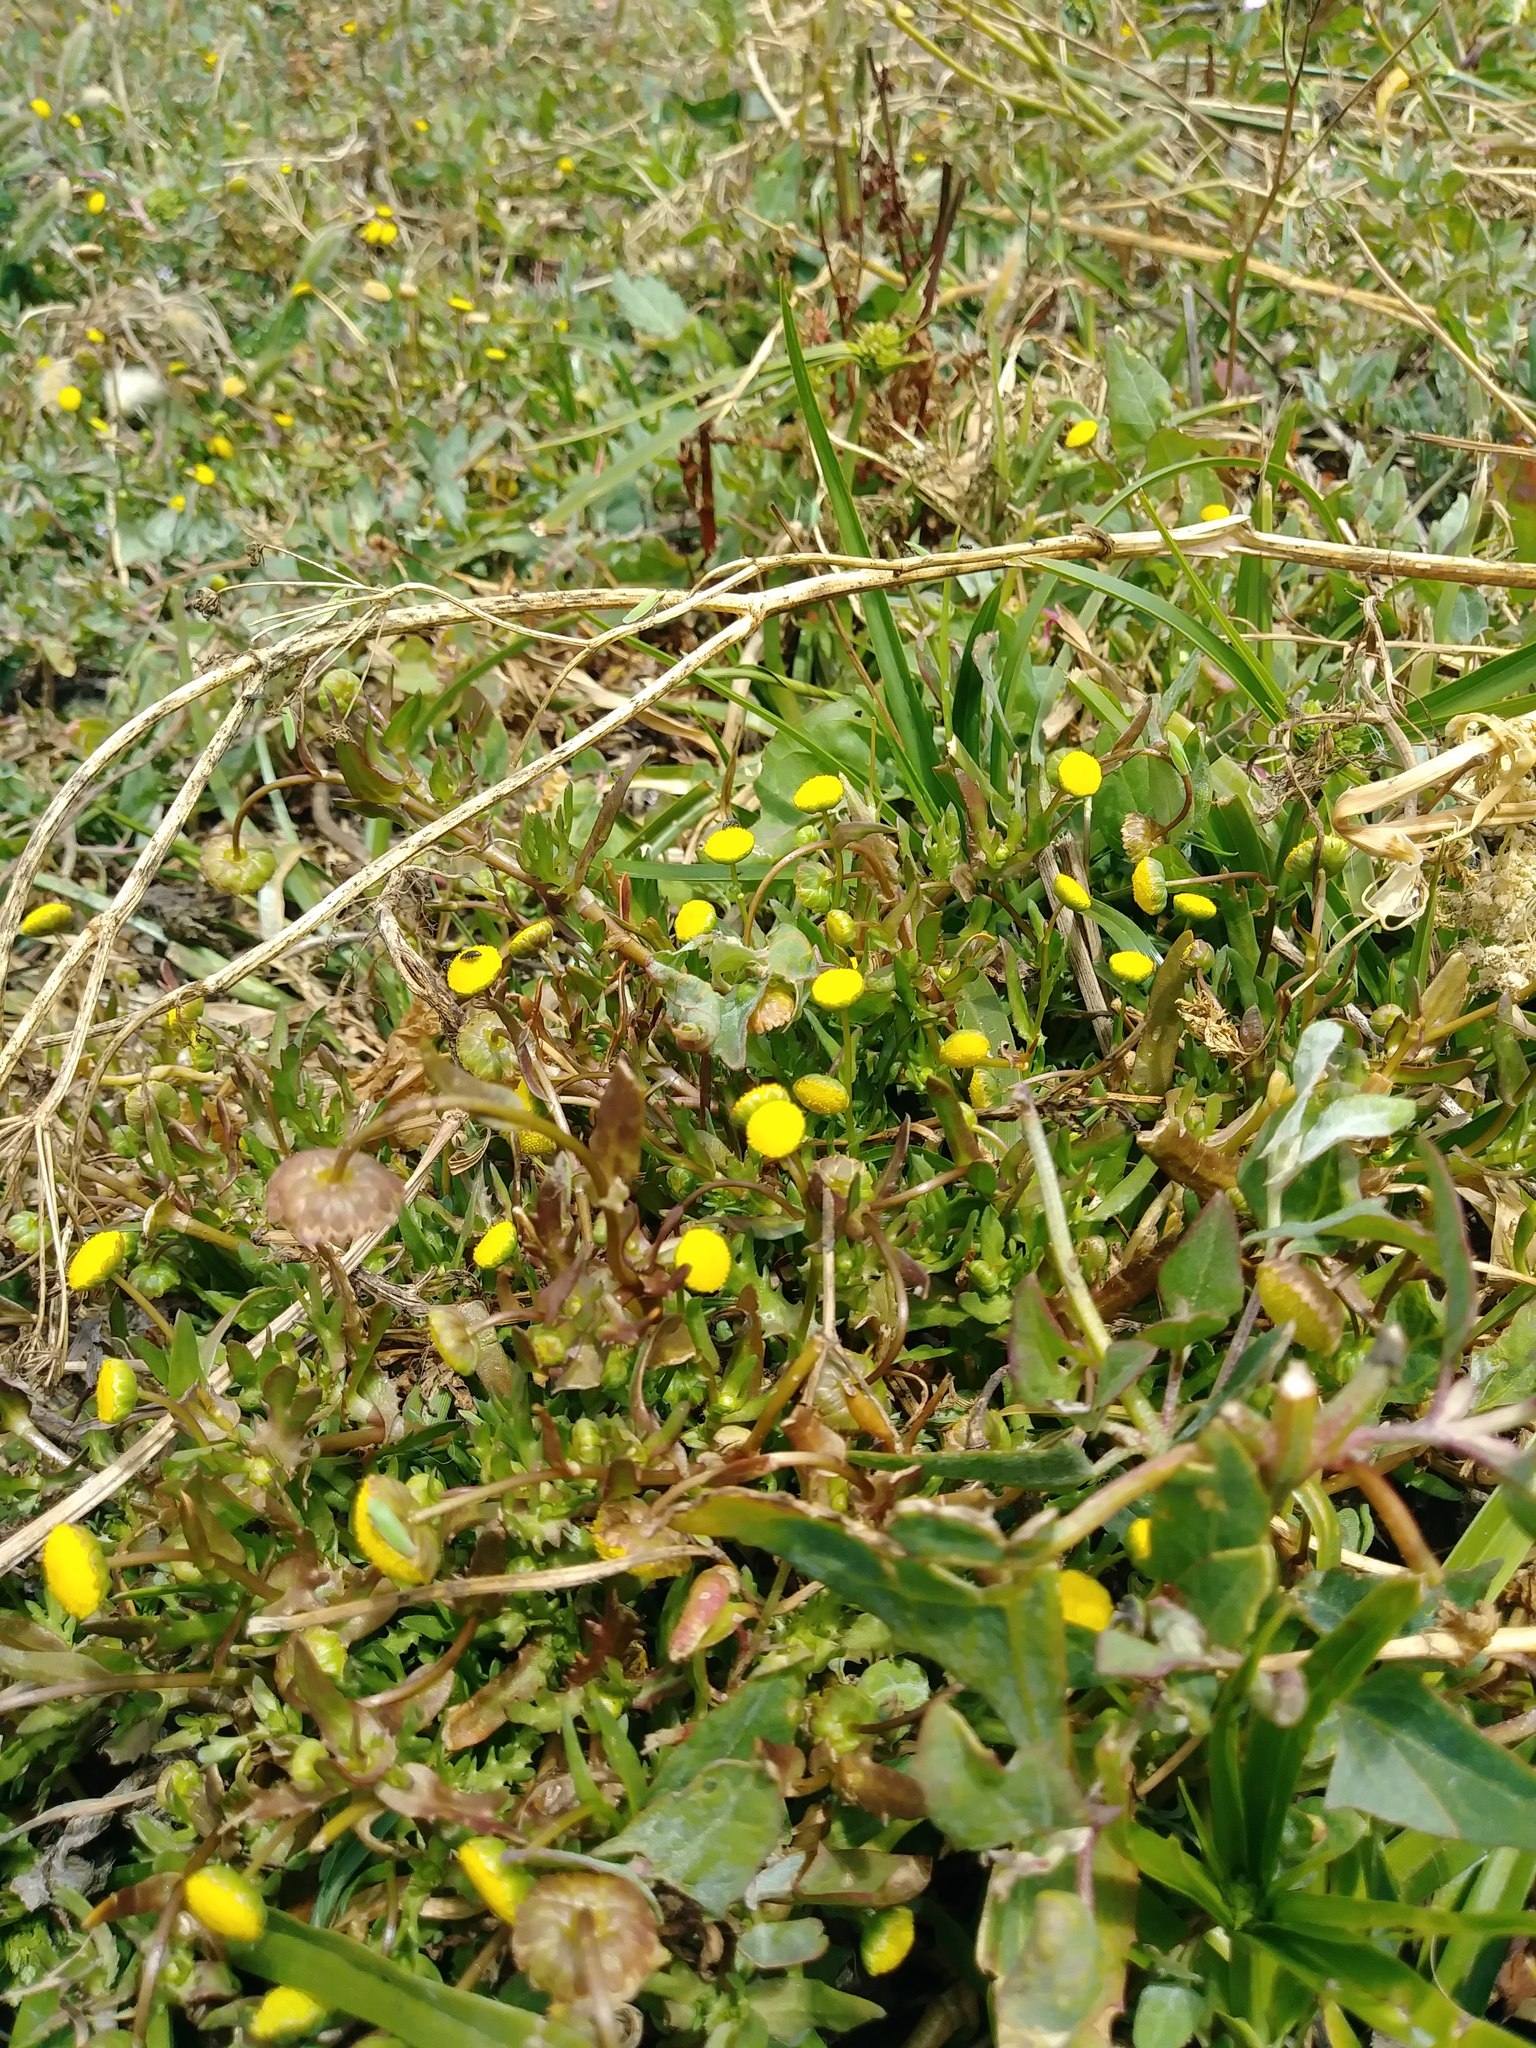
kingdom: Plantae
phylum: Tracheophyta
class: Magnoliopsida
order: Asterales
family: Asteraceae
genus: Cotula
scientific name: Cotula coronopifolia
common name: Buttonweed
